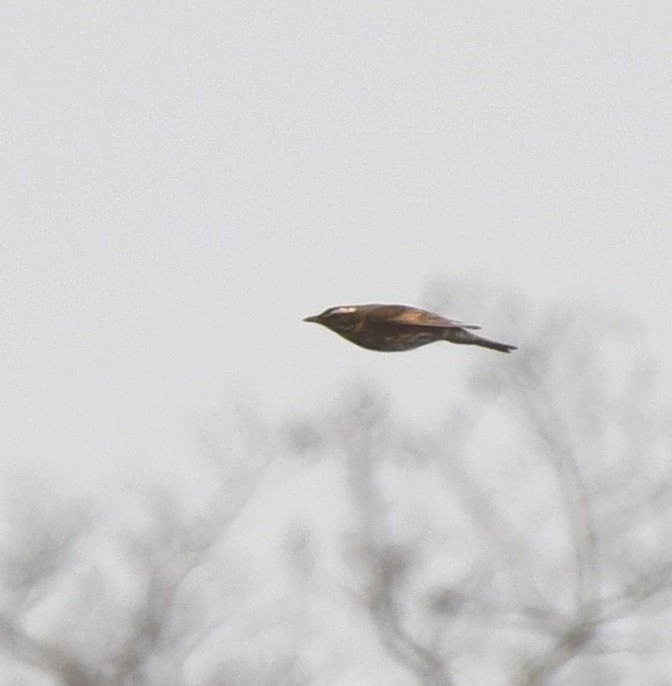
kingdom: Animalia
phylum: Chordata
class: Aves
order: Passeriformes
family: Turdidae
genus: Turdus
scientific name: Turdus iliacus
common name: Redwing
